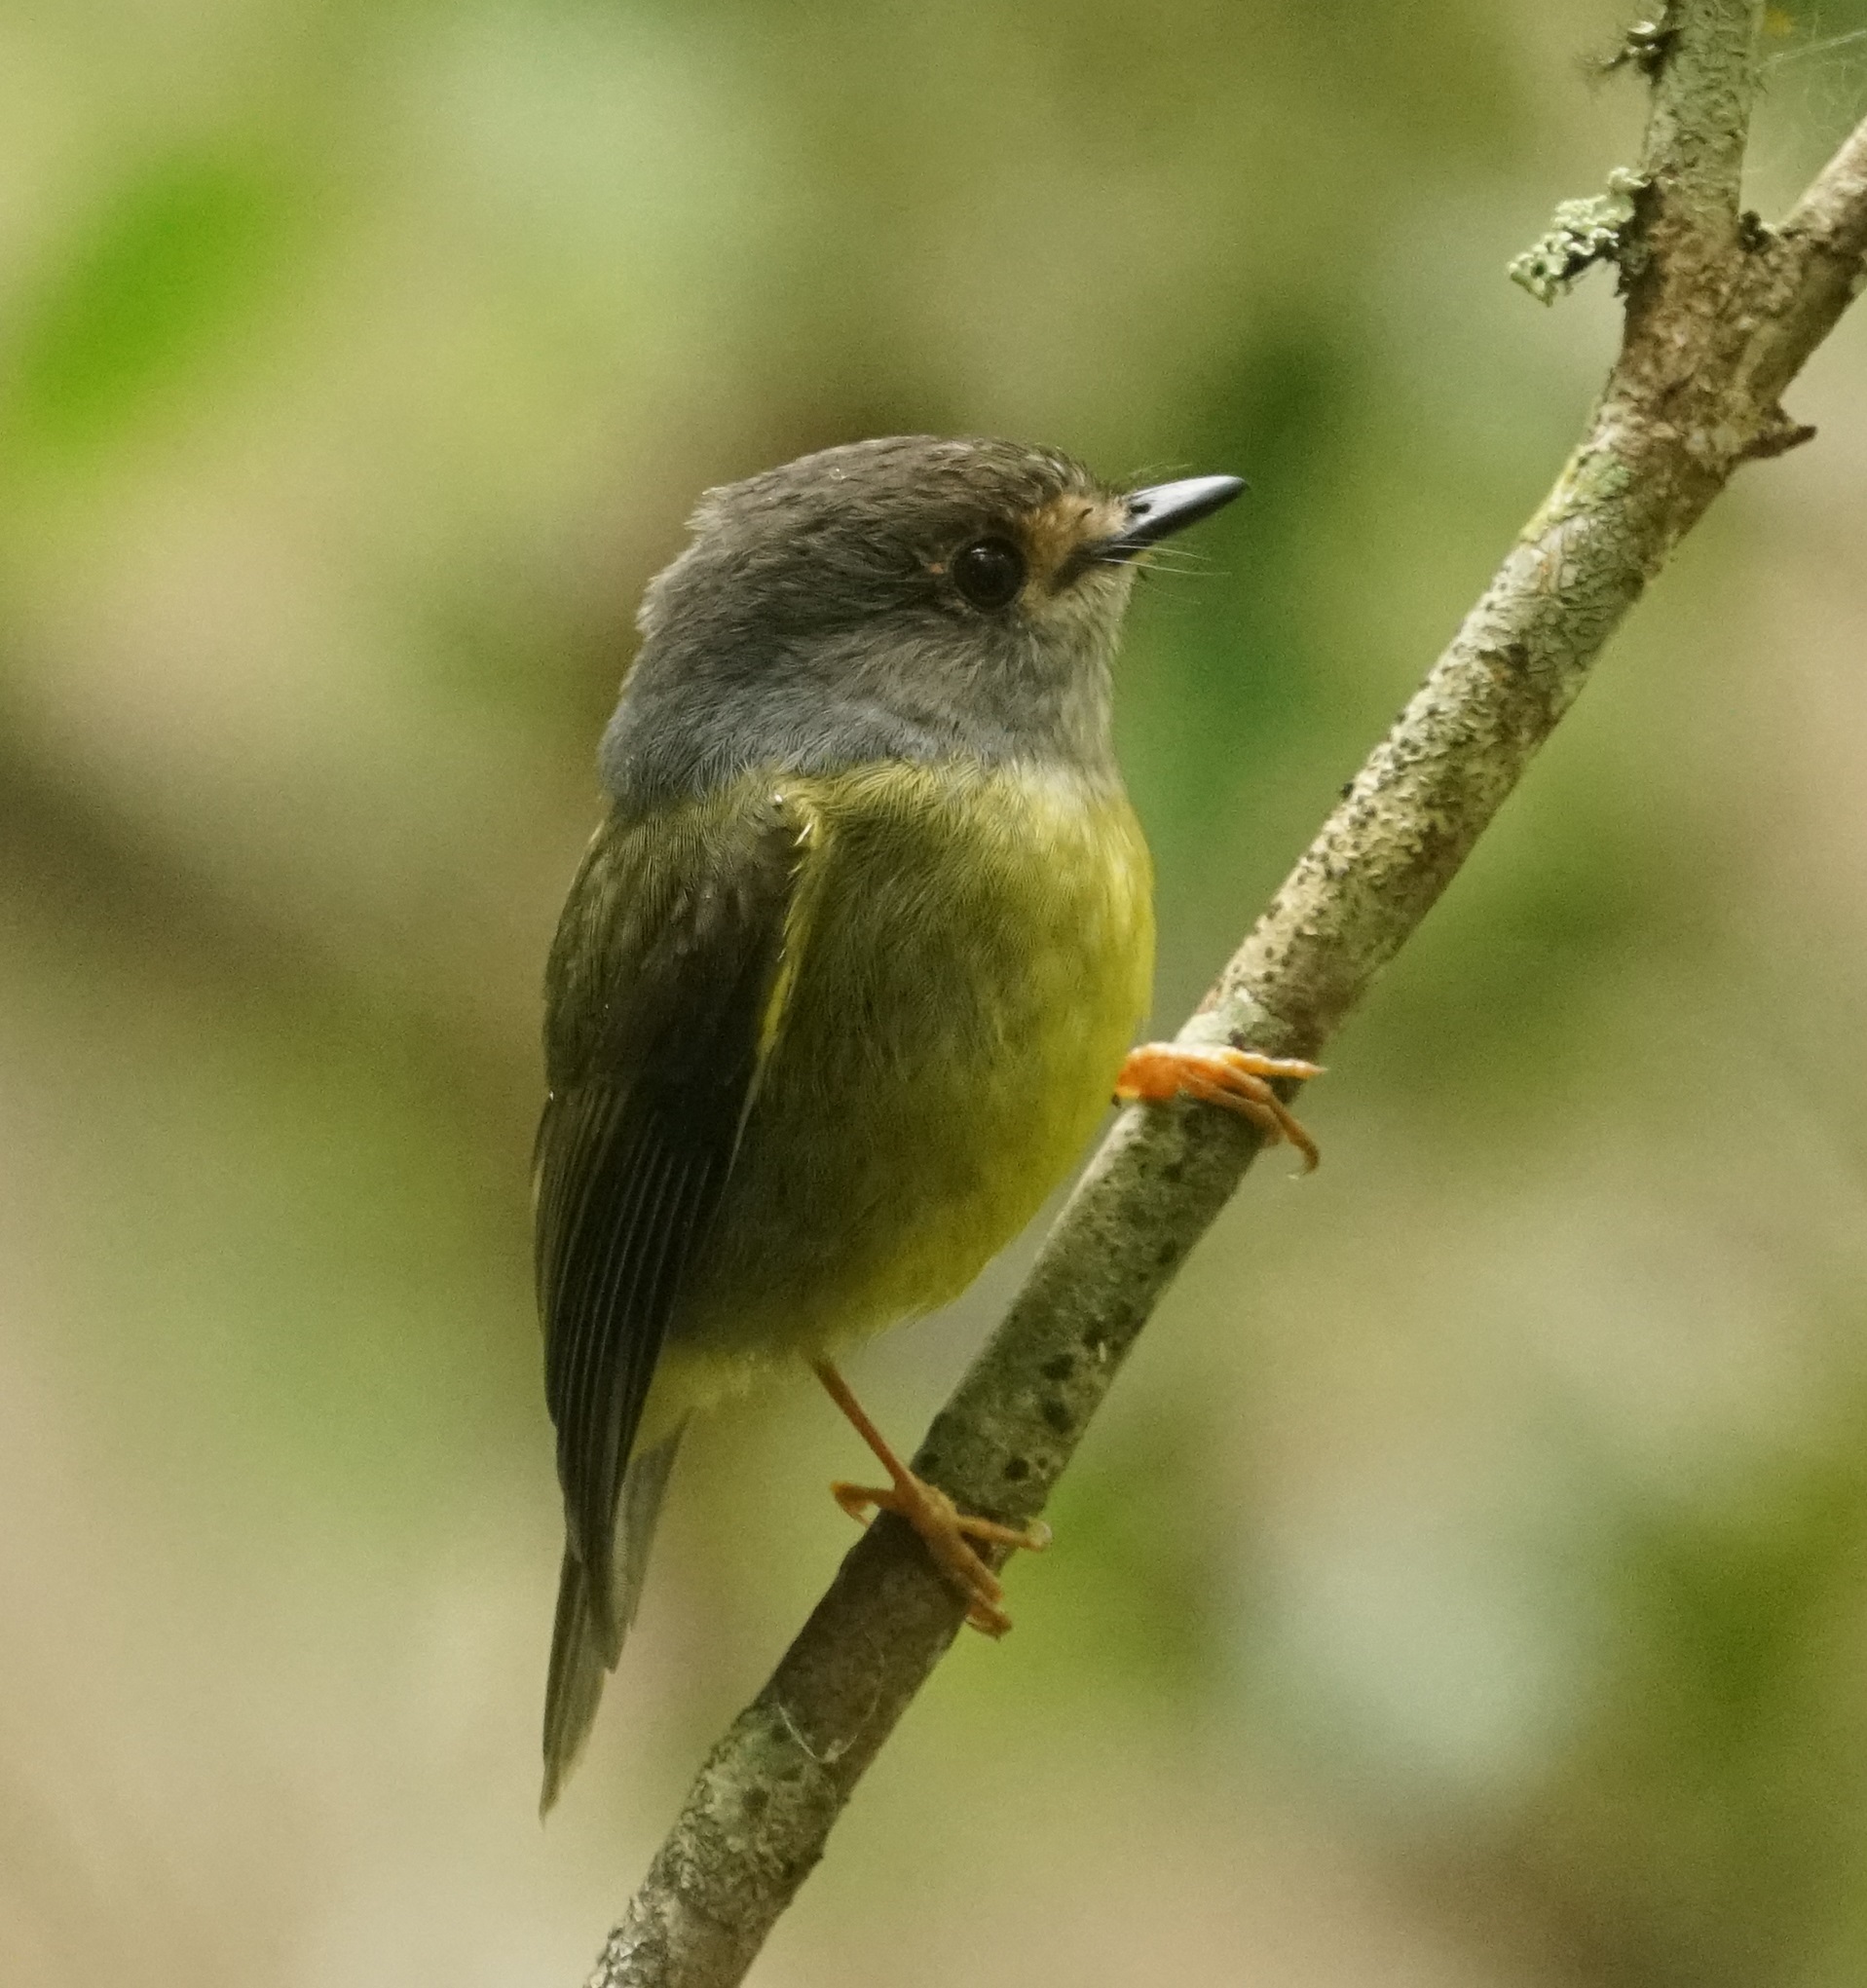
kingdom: Animalia
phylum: Chordata
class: Aves
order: Passeriformes
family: Petroicidae
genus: Eopsaltria
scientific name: Eopsaltria
